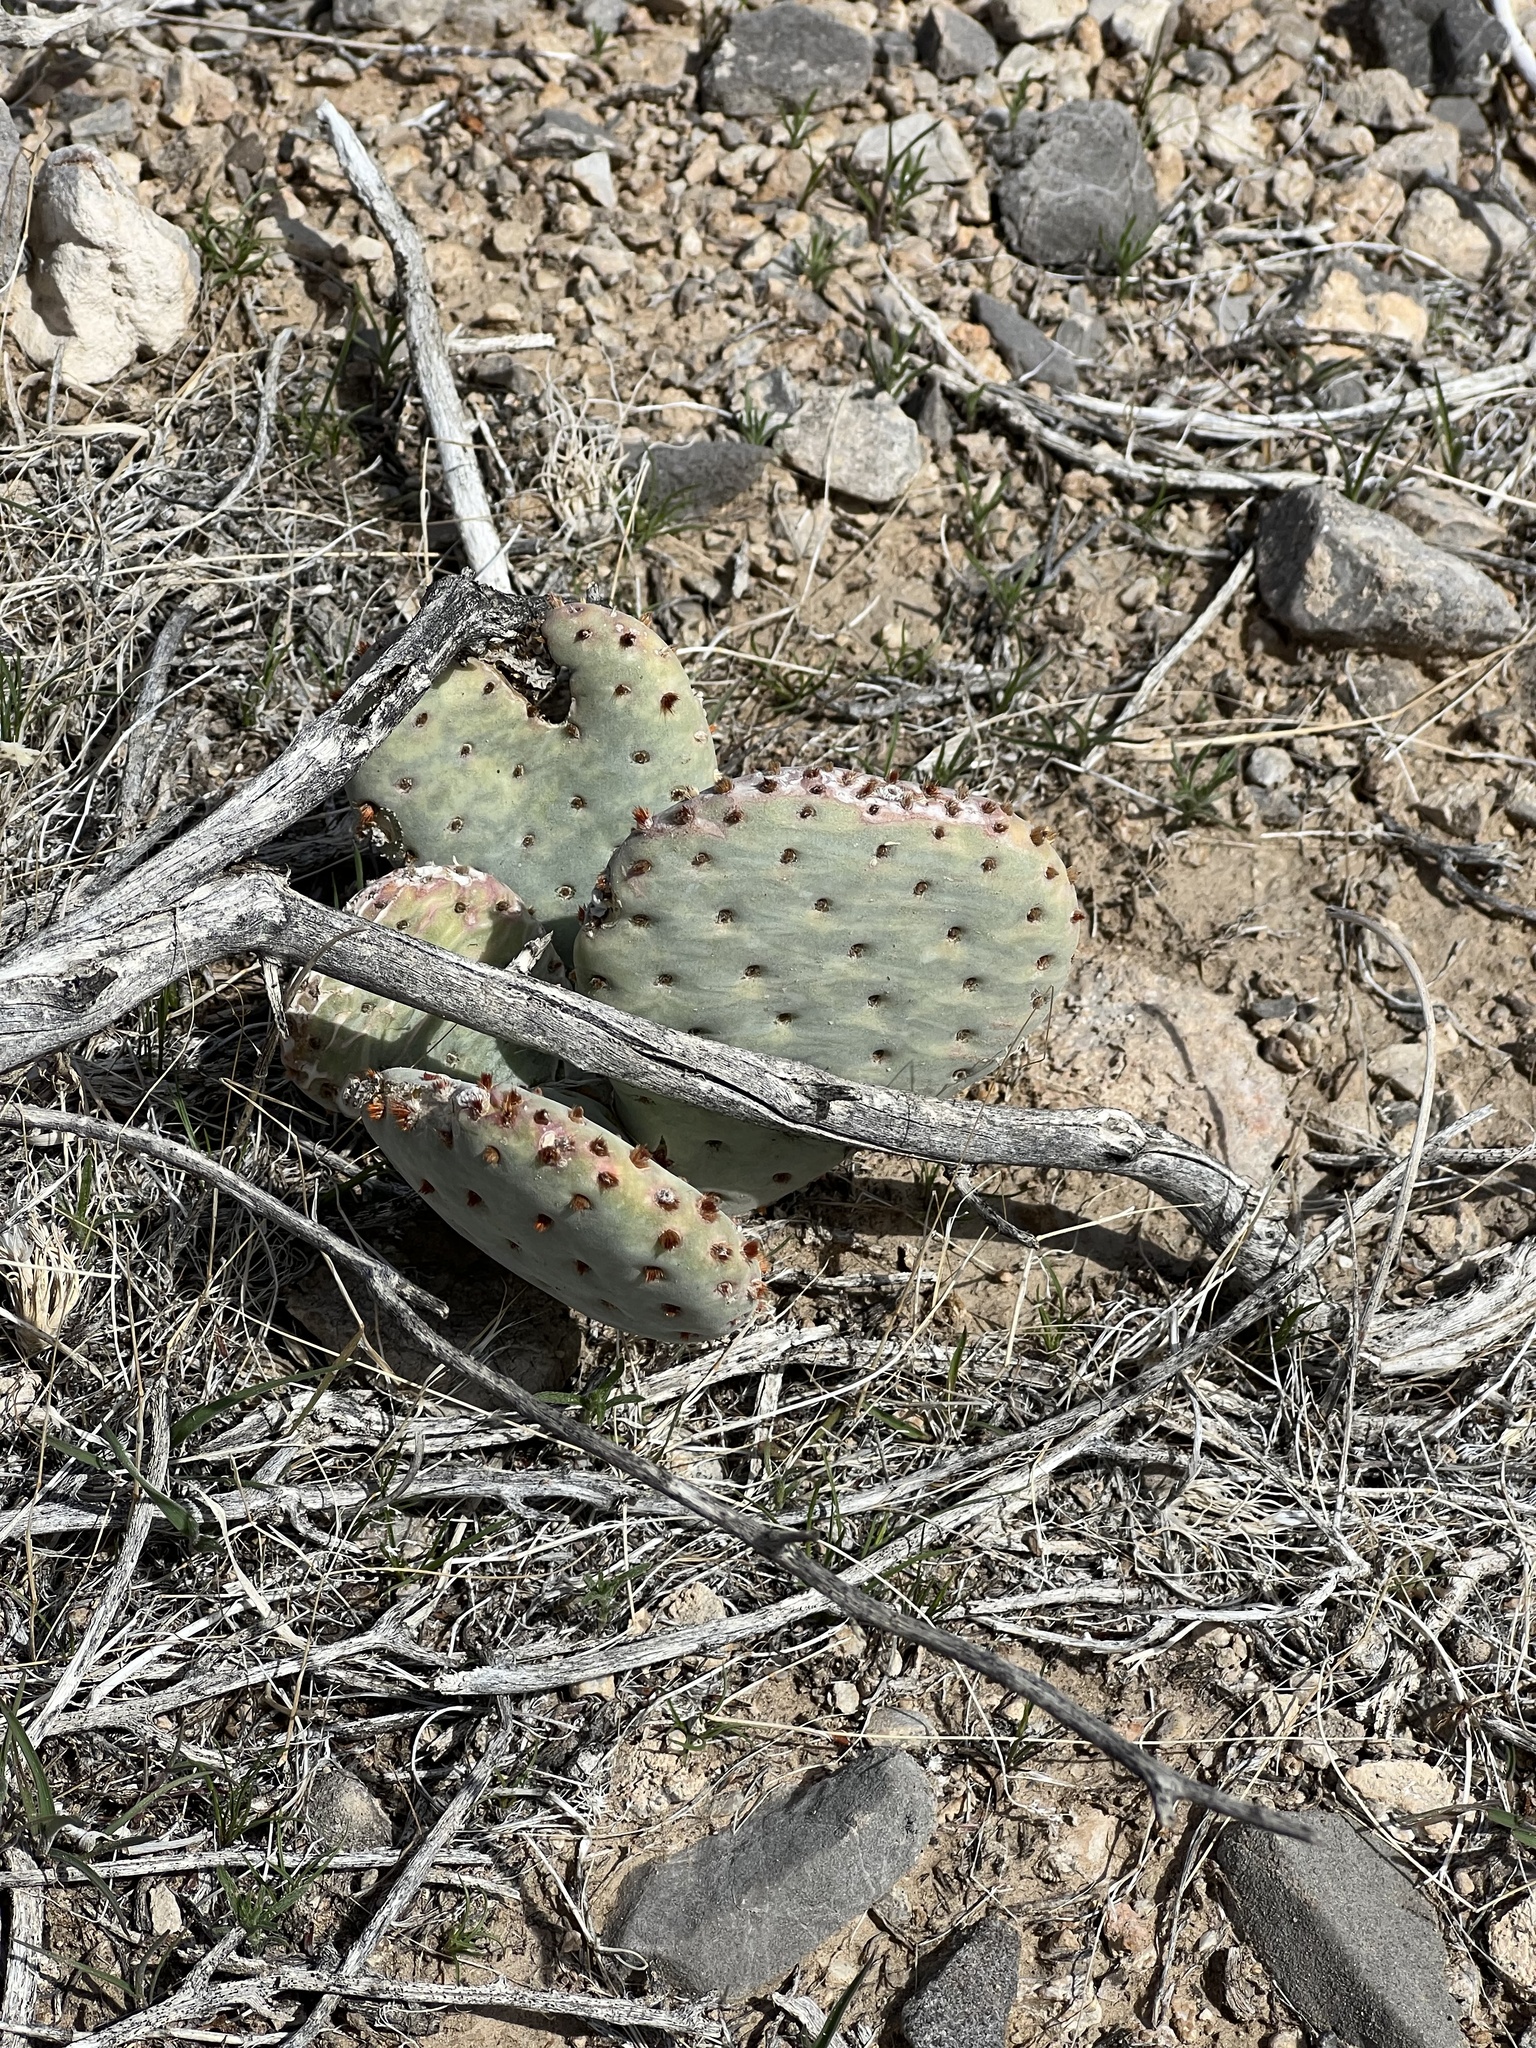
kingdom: Plantae
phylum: Tracheophyta
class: Magnoliopsida
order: Caryophyllales
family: Cactaceae
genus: Opuntia
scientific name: Opuntia basilaris
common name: Beavertail prickly-pear
